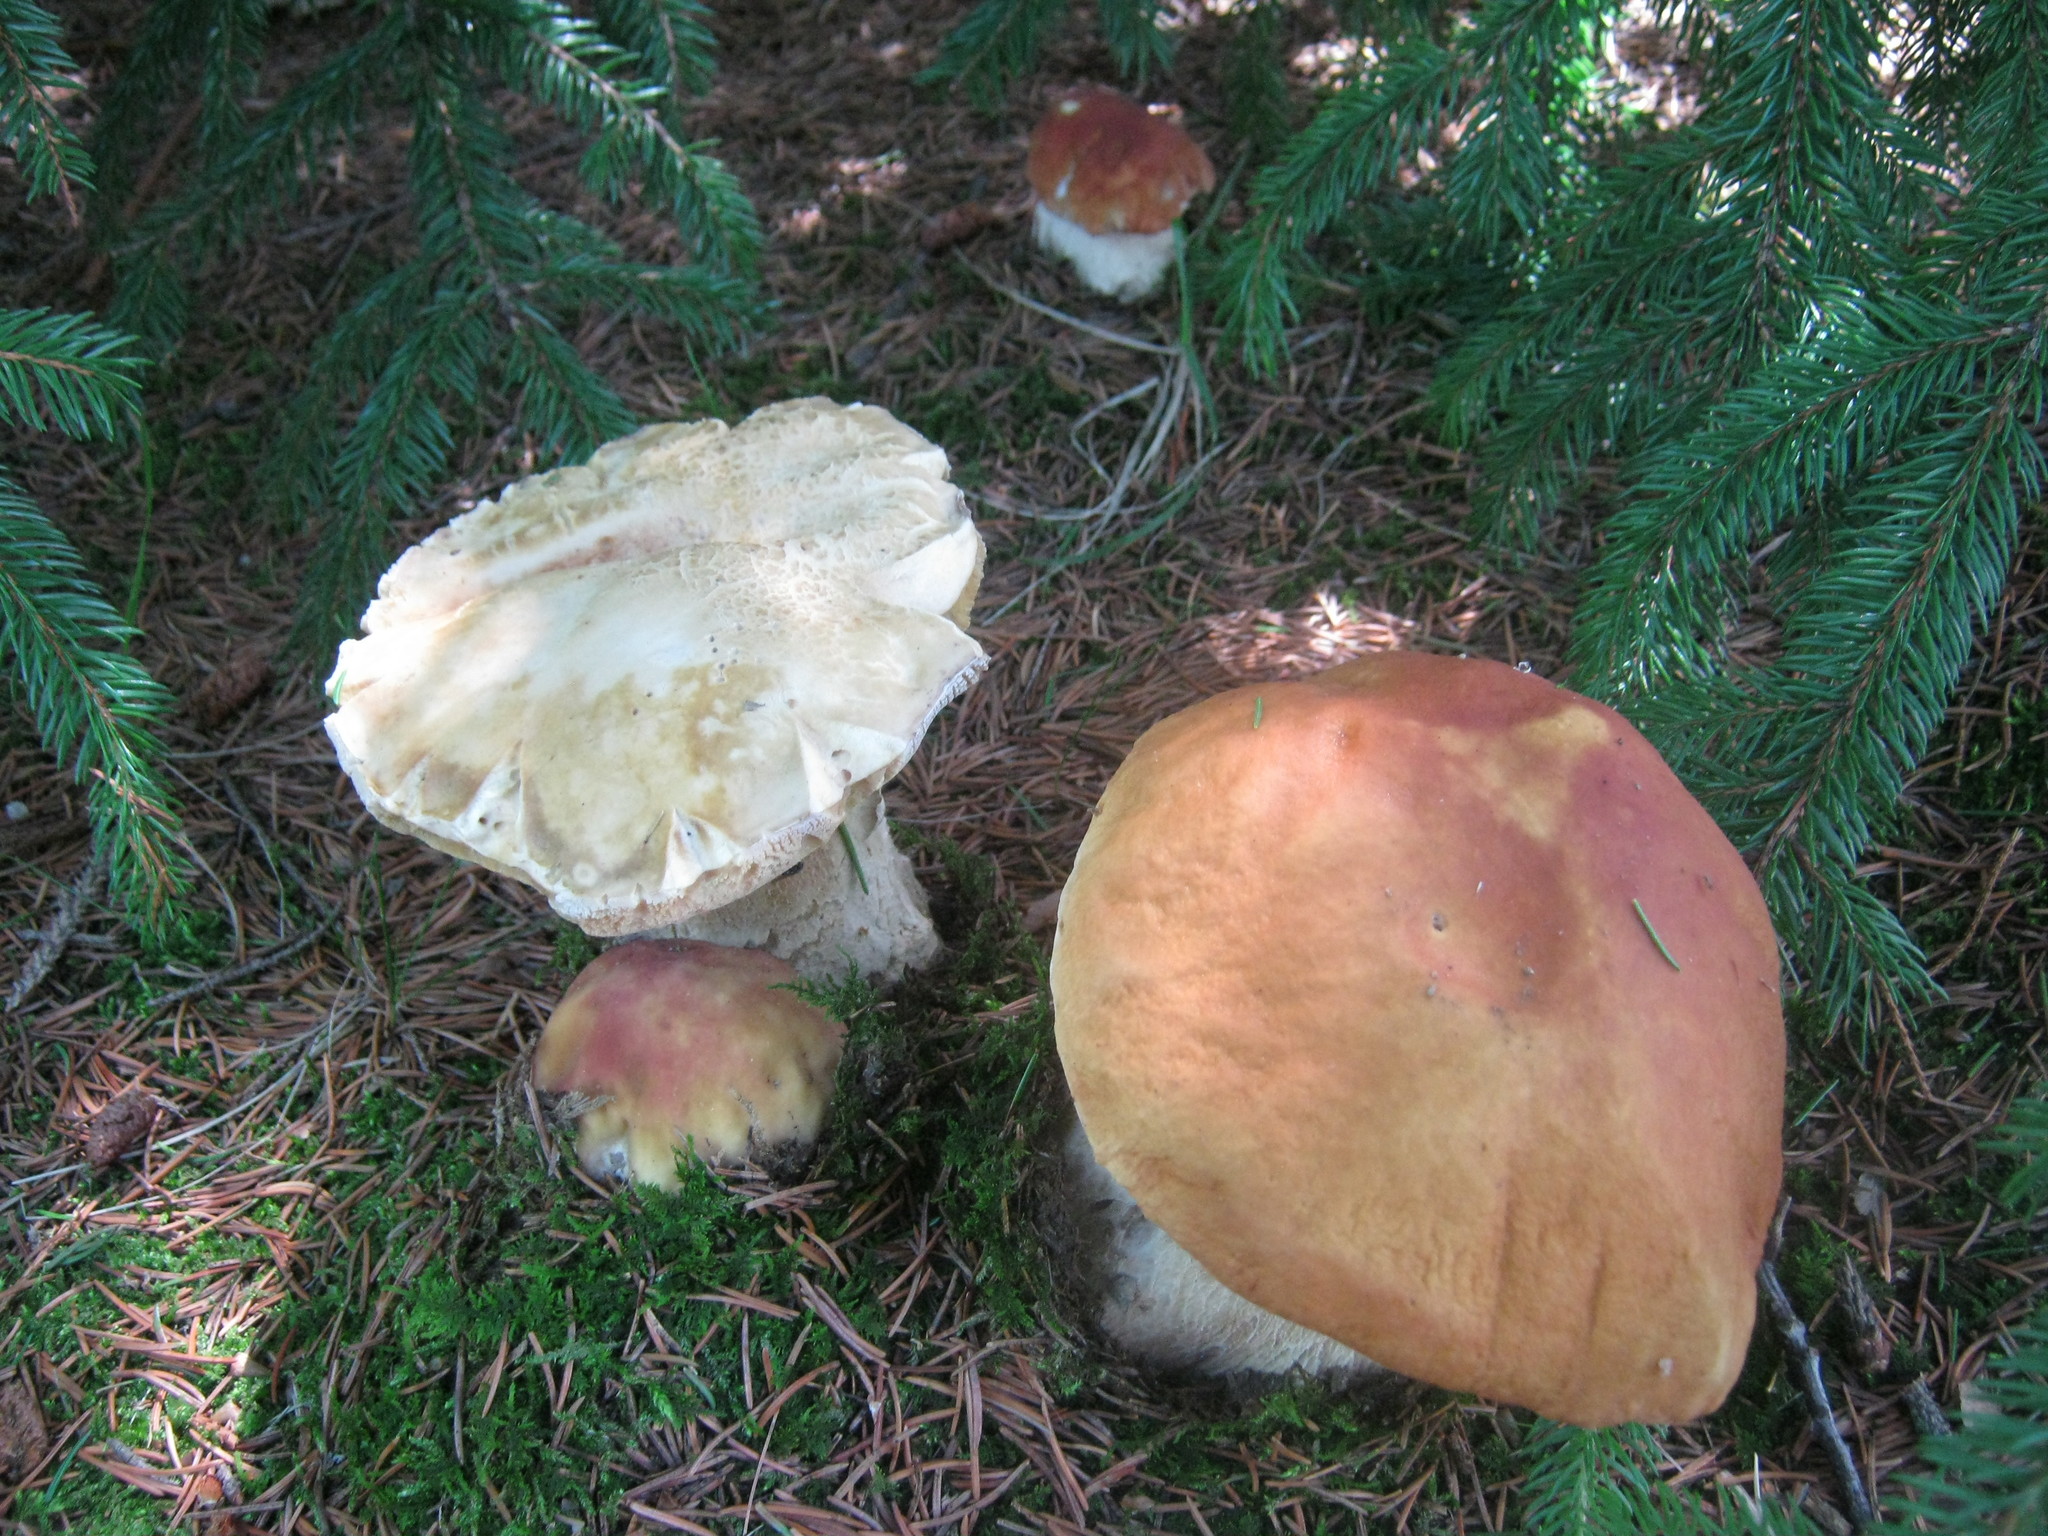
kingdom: Fungi
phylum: Basidiomycota
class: Agaricomycetes
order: Boletales
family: Boletaceae
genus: Boletus
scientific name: Boletus chippewaensis
